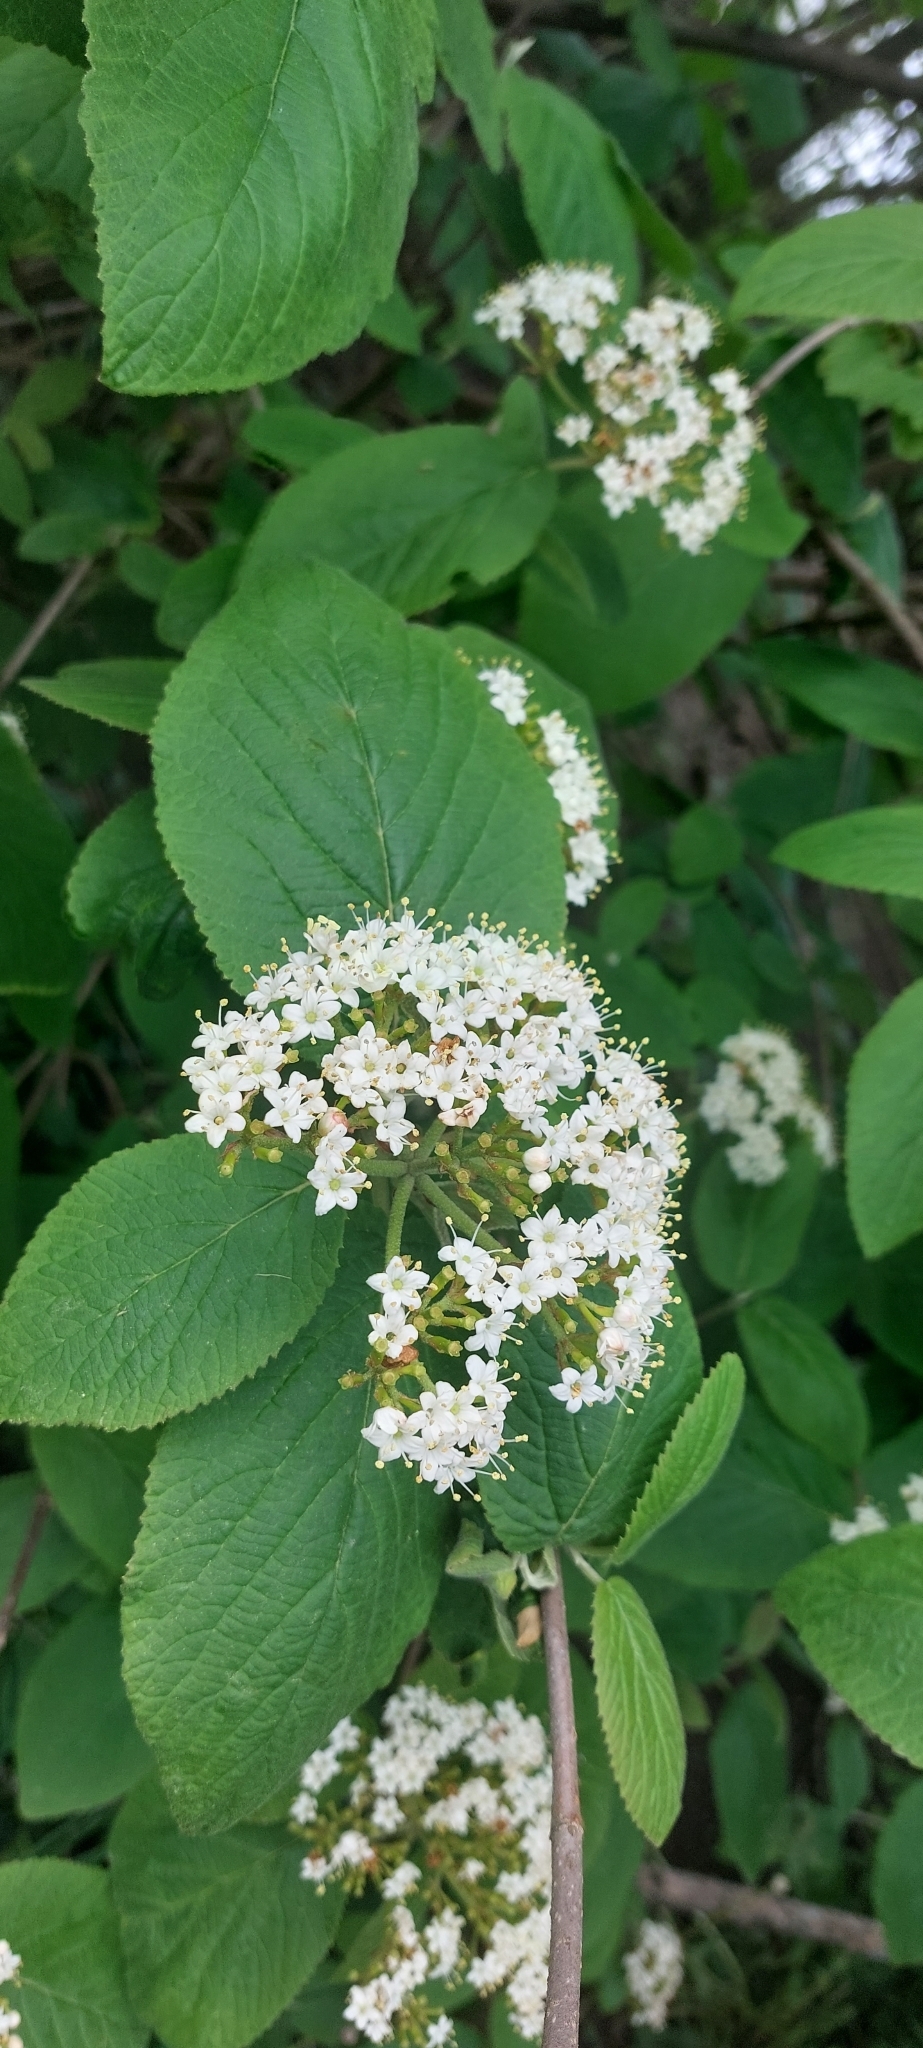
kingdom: Plantae
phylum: Tracheophyta
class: Magnoliopsida
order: Dipsacales
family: Viburnaceae
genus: Viburnum
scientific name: Viburnum lantana
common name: Wayfaring tree
